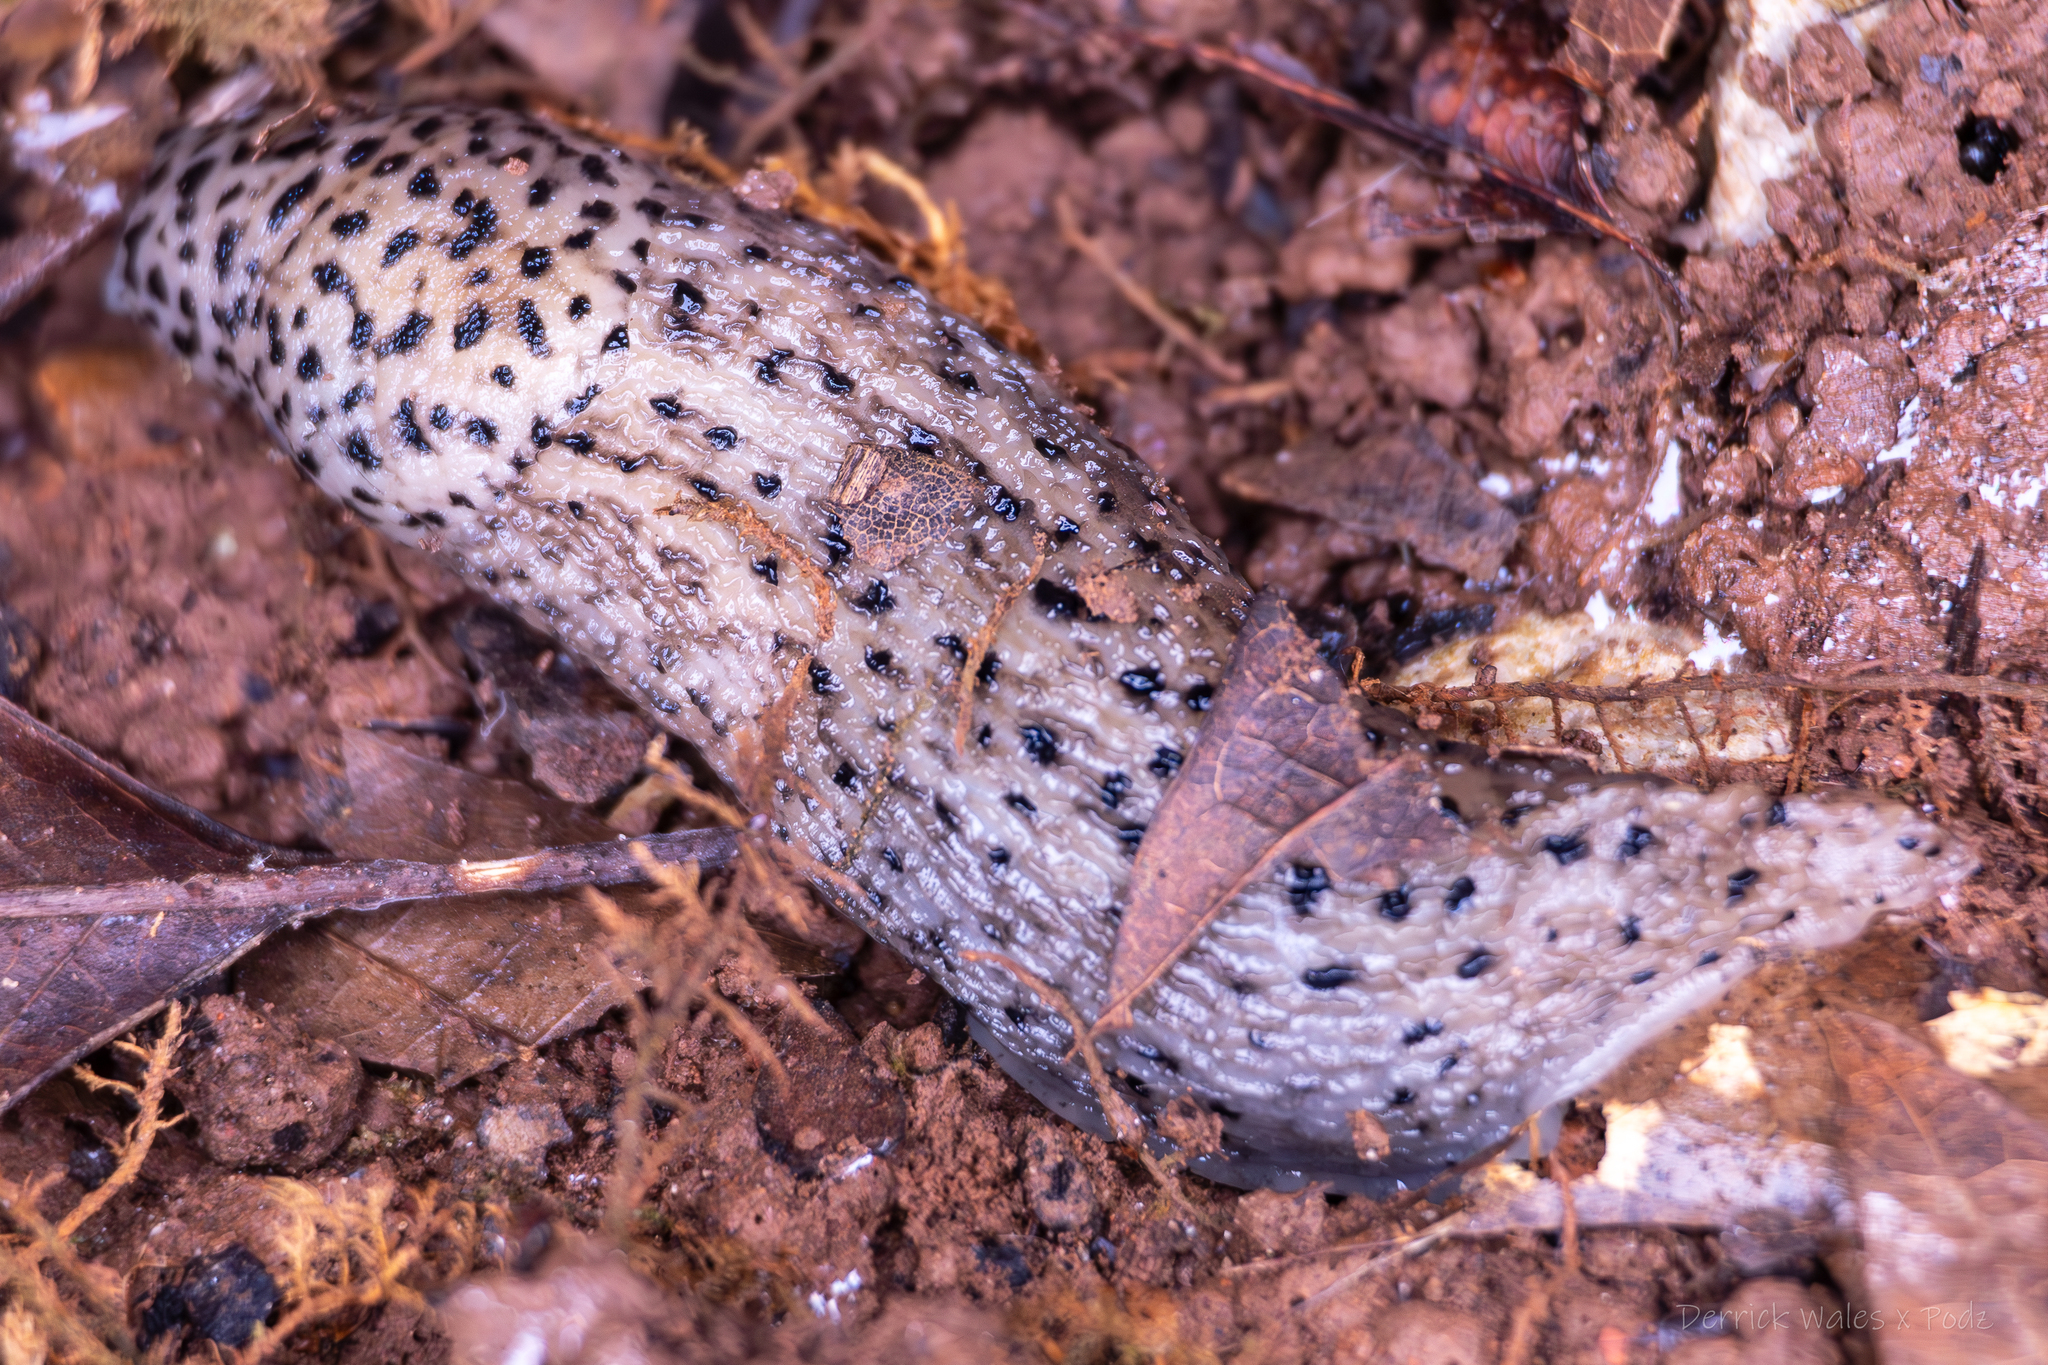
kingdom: Animalia
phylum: Mollusca
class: Gastropoda
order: Stylommatophora
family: Limacidae
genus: Limax
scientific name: Limax maximus
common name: Great grey slug
